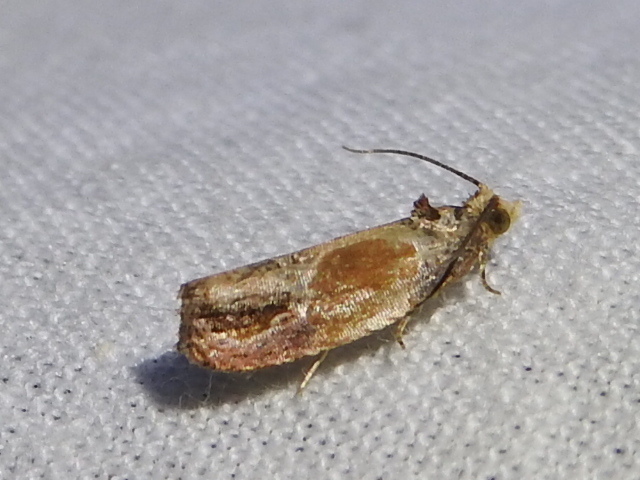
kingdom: Animalia
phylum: Arthropoda
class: Insecta
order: Lepidoptera
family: Tortricidae
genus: Eumarozia
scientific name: Eumarozia malachitana
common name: Sculptured moth
